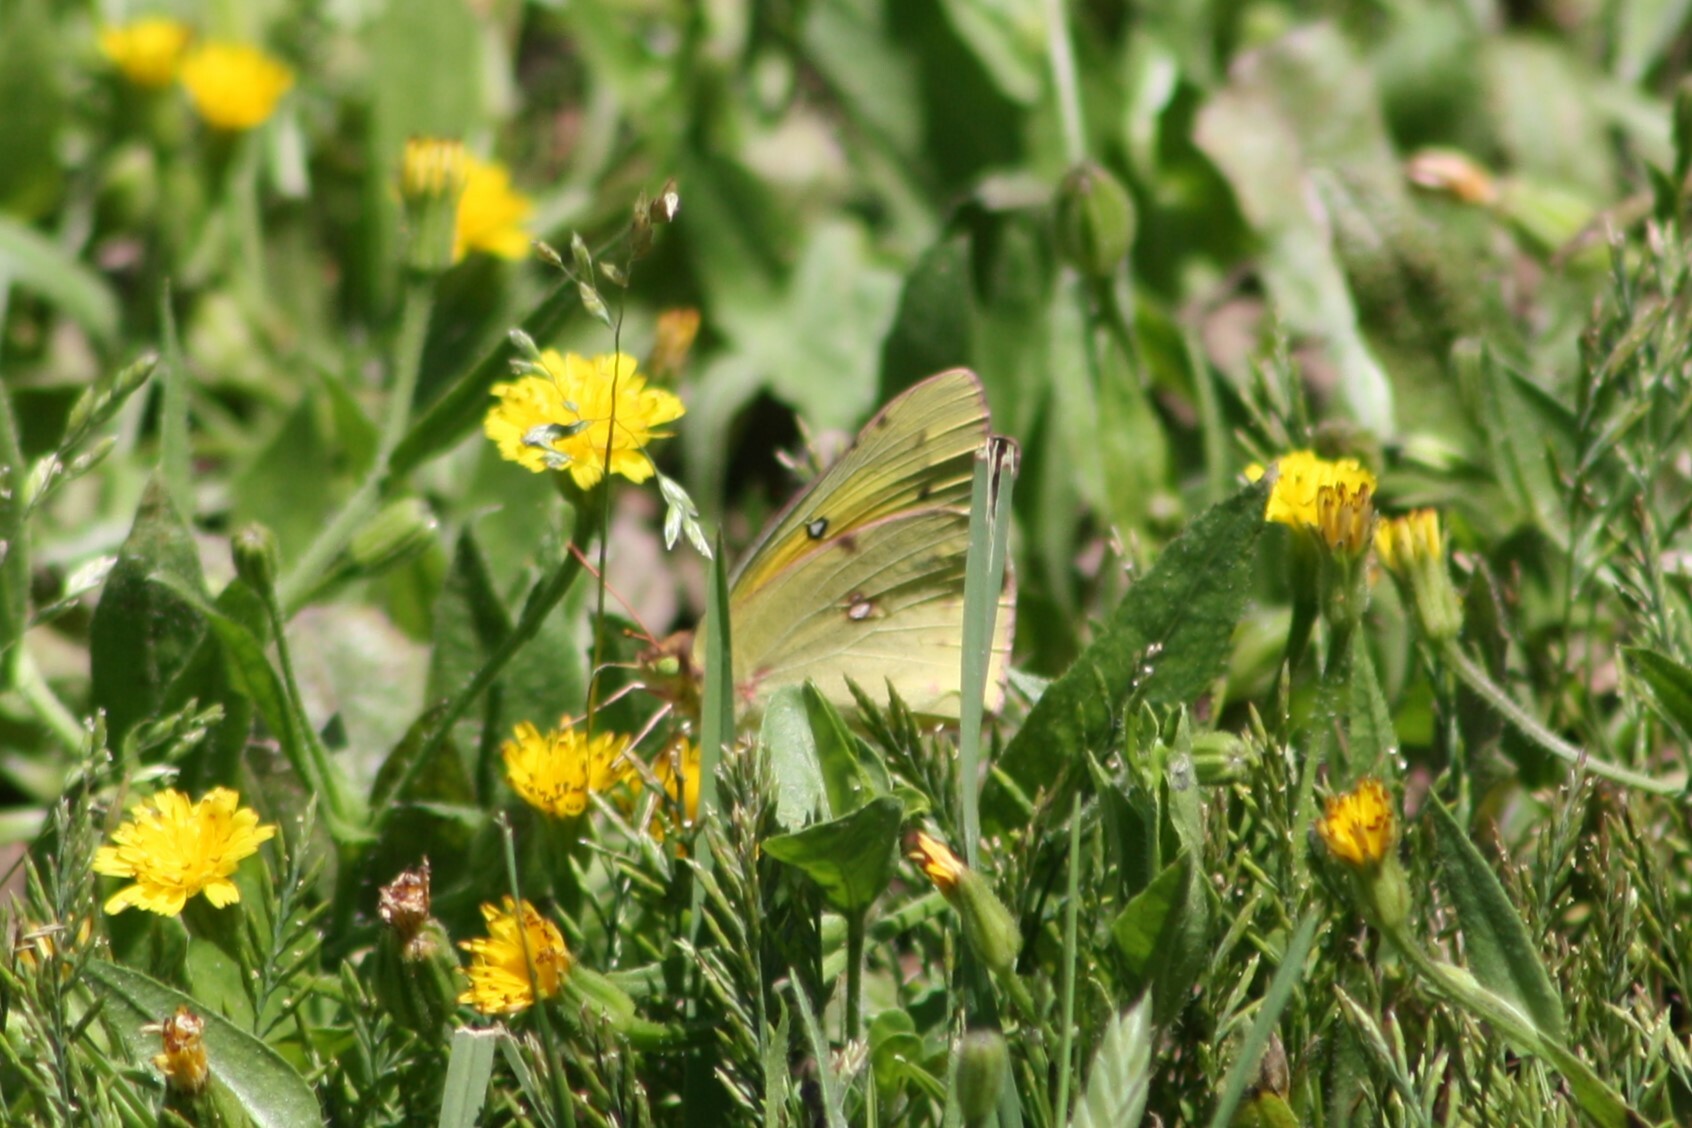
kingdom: Animalia
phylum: Arthropoda
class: Insecta
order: Lepidoptera
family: Pieridae
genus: Colias
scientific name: Colias eurytheme
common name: Alfalfa butterfly
